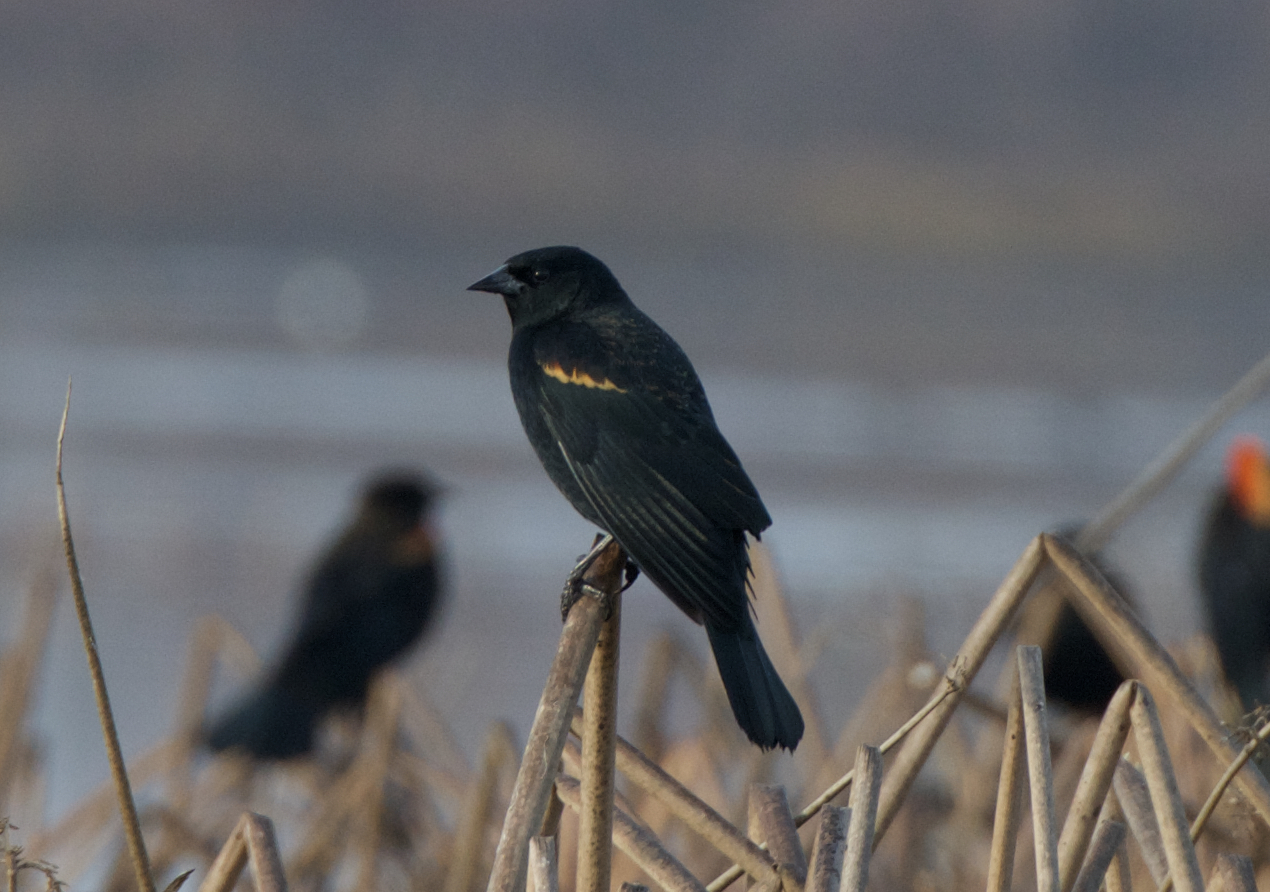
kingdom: Animalia
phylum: Chordata
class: Aves
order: Passeriformes
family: Icteridae
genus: Agelaius
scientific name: Agelaius phoeniceus
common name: Red-winged blackbird
